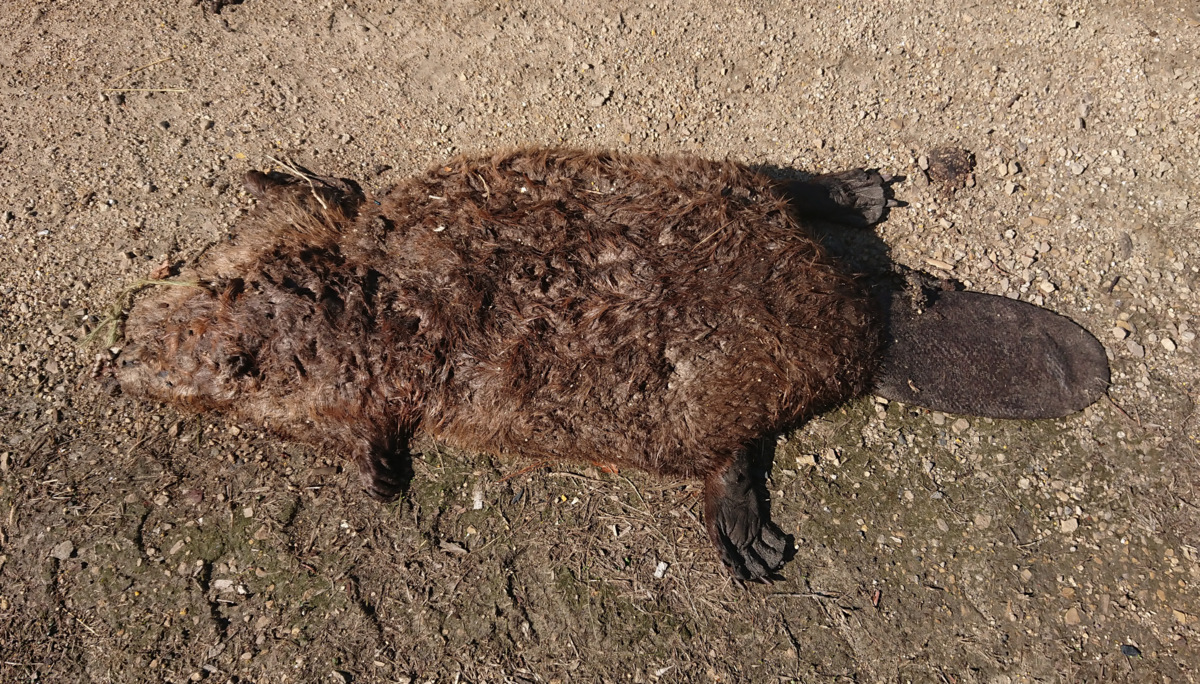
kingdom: Animalia
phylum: Chordata
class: Mammalia
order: Rodentia
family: Castoridae
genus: Castor
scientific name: Castor canadensis
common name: American beaver
